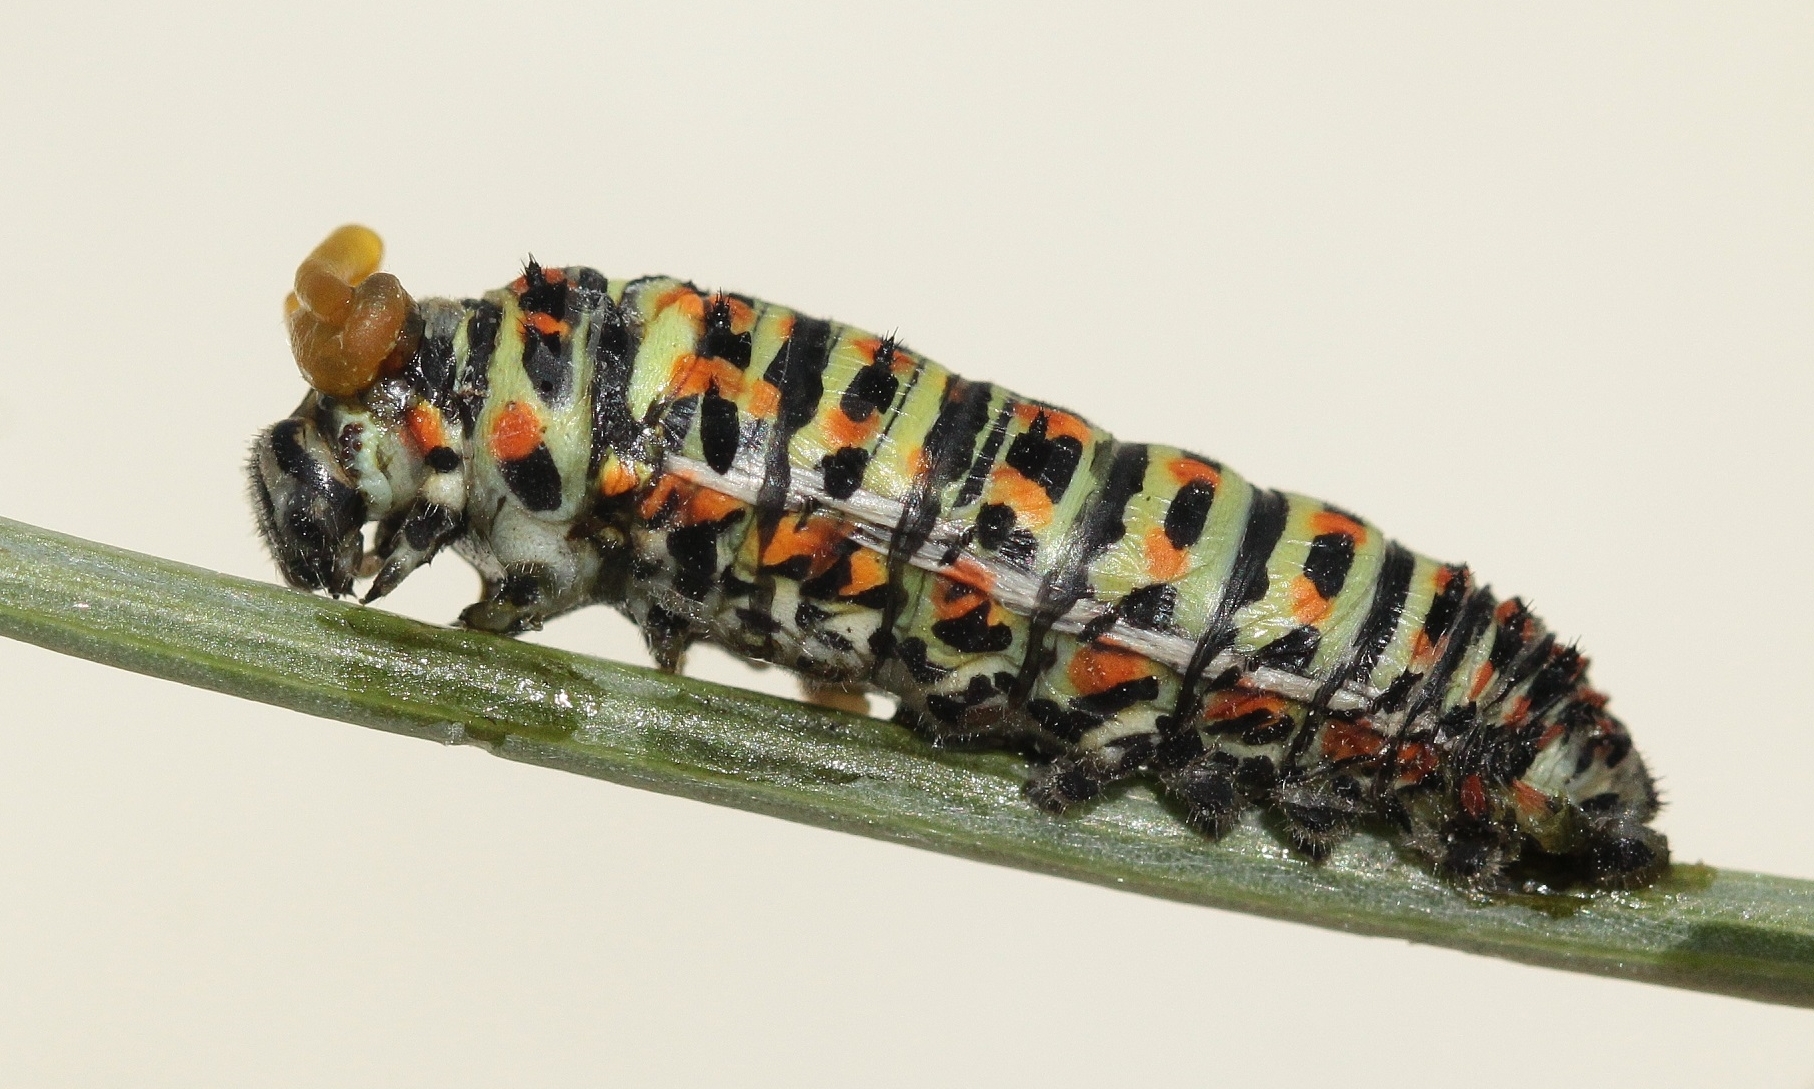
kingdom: Animalia
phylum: Arthropoda
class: Insecta
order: Lepidoptera
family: Papilionidae
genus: Papilio
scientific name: Papilio machaon
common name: Swallowtail
